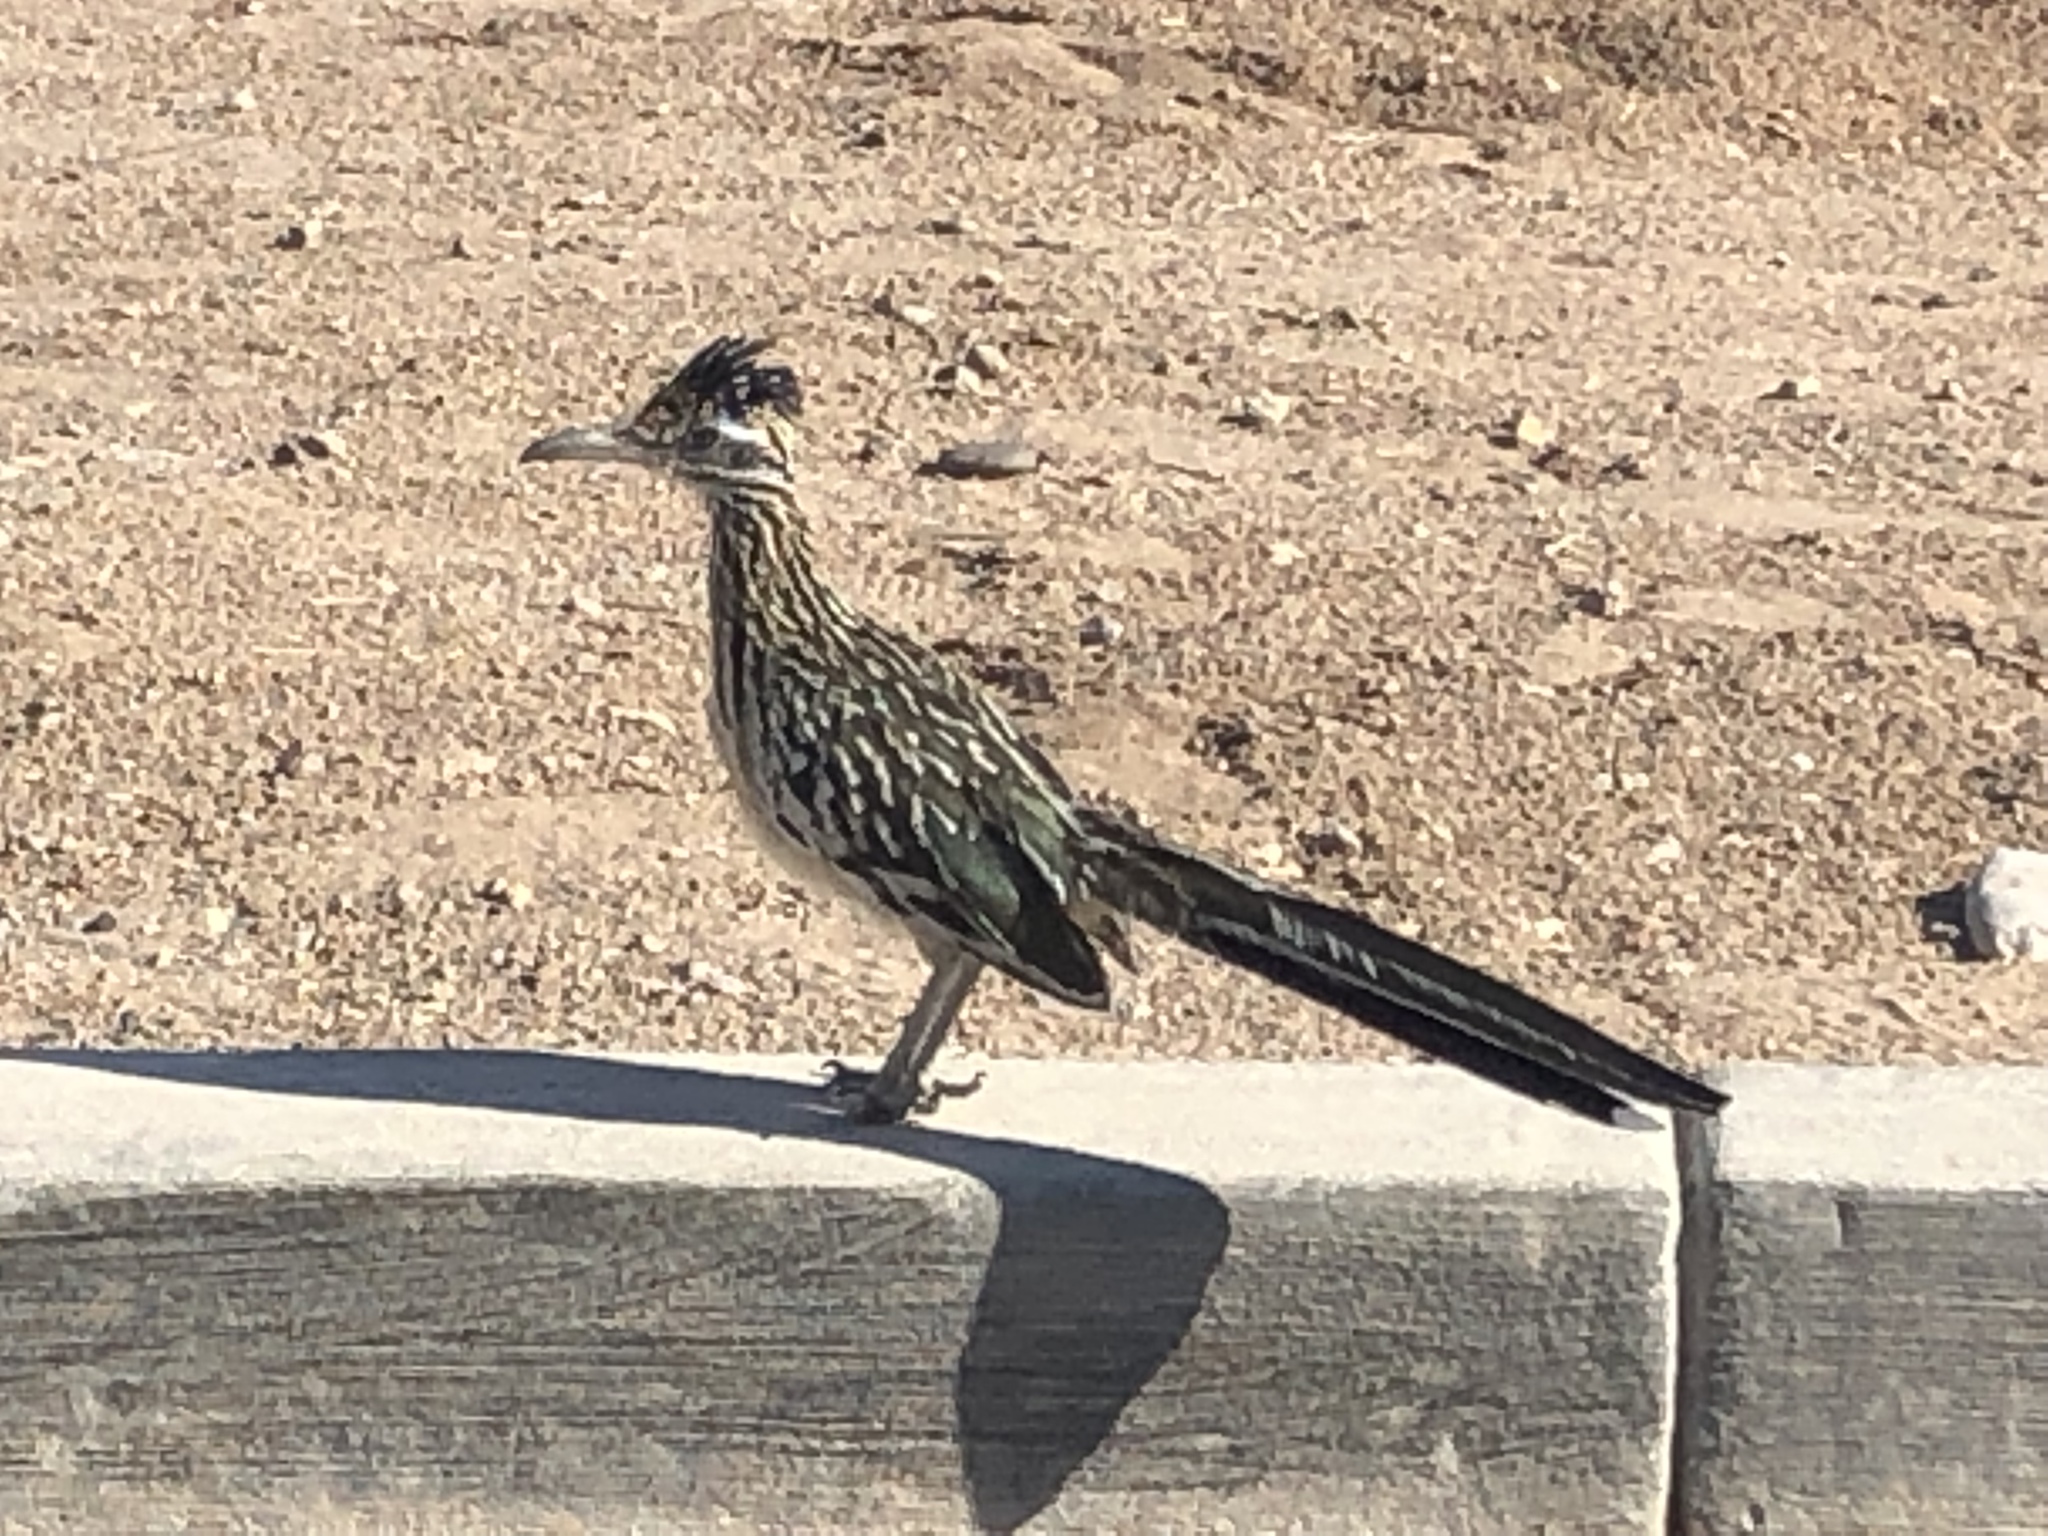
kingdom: Animalia
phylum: Chordata
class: Aves
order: Cuculiformes
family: Cuculidae
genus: Geococcyx
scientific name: Geococcyx californianus
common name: Greater roadrunner
